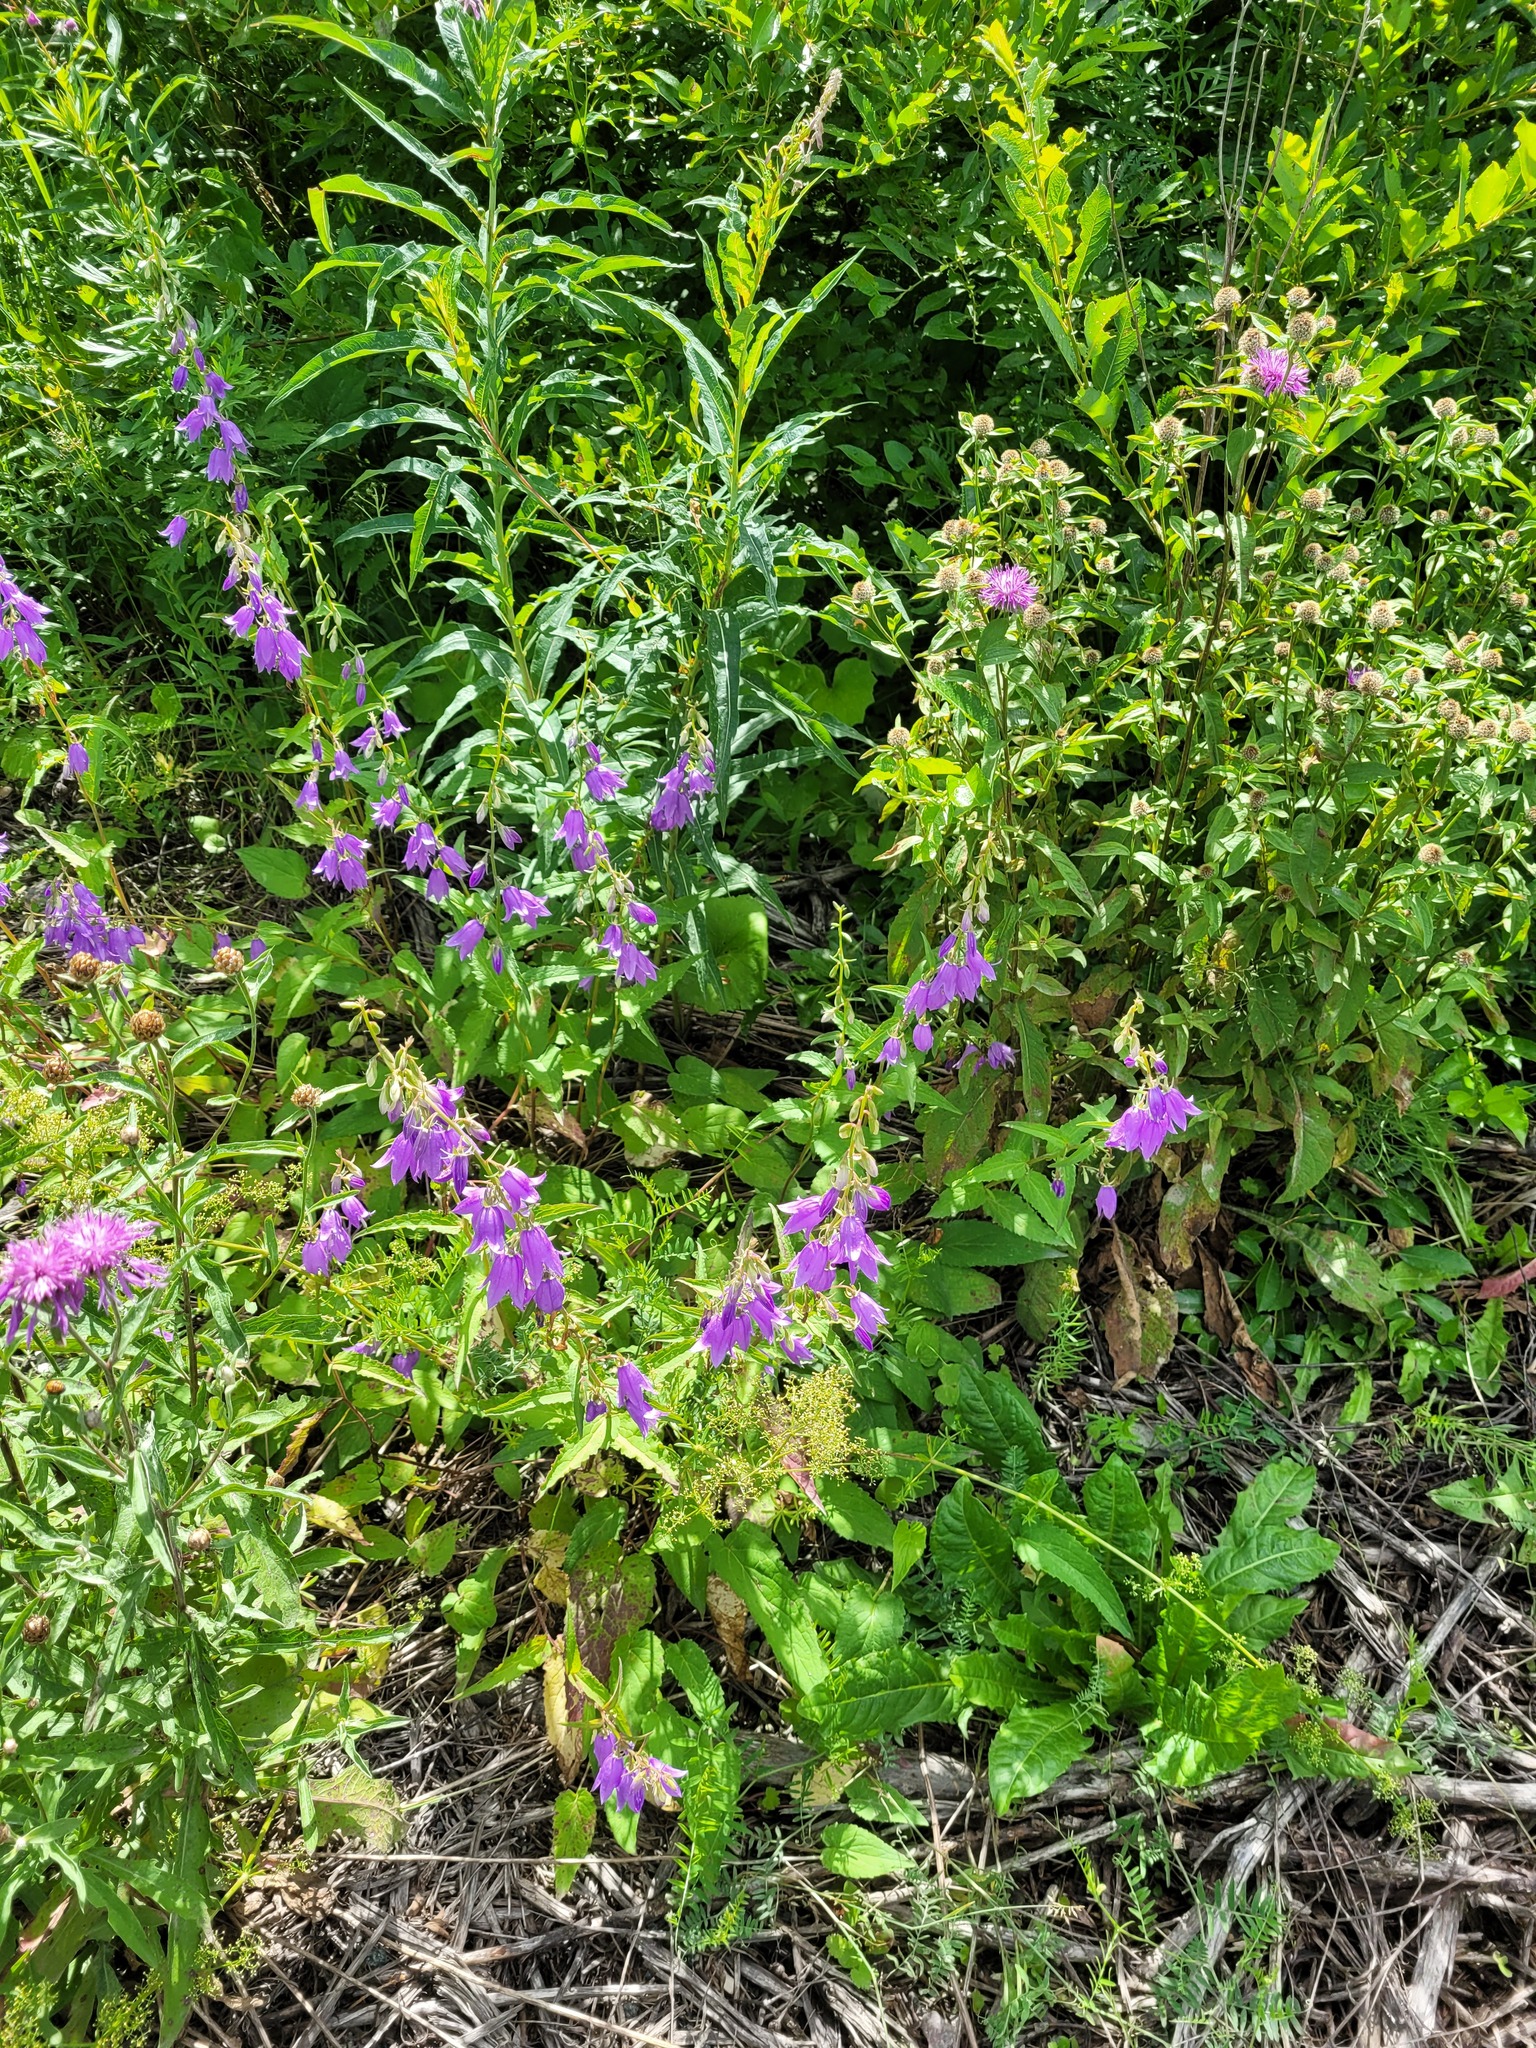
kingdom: Plantae
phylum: Tracheophyta
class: Magnoliopsida
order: Asterales
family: Campanulaceae
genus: Campanula
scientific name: Campanula rapunculoides
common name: Creeping bellflower
